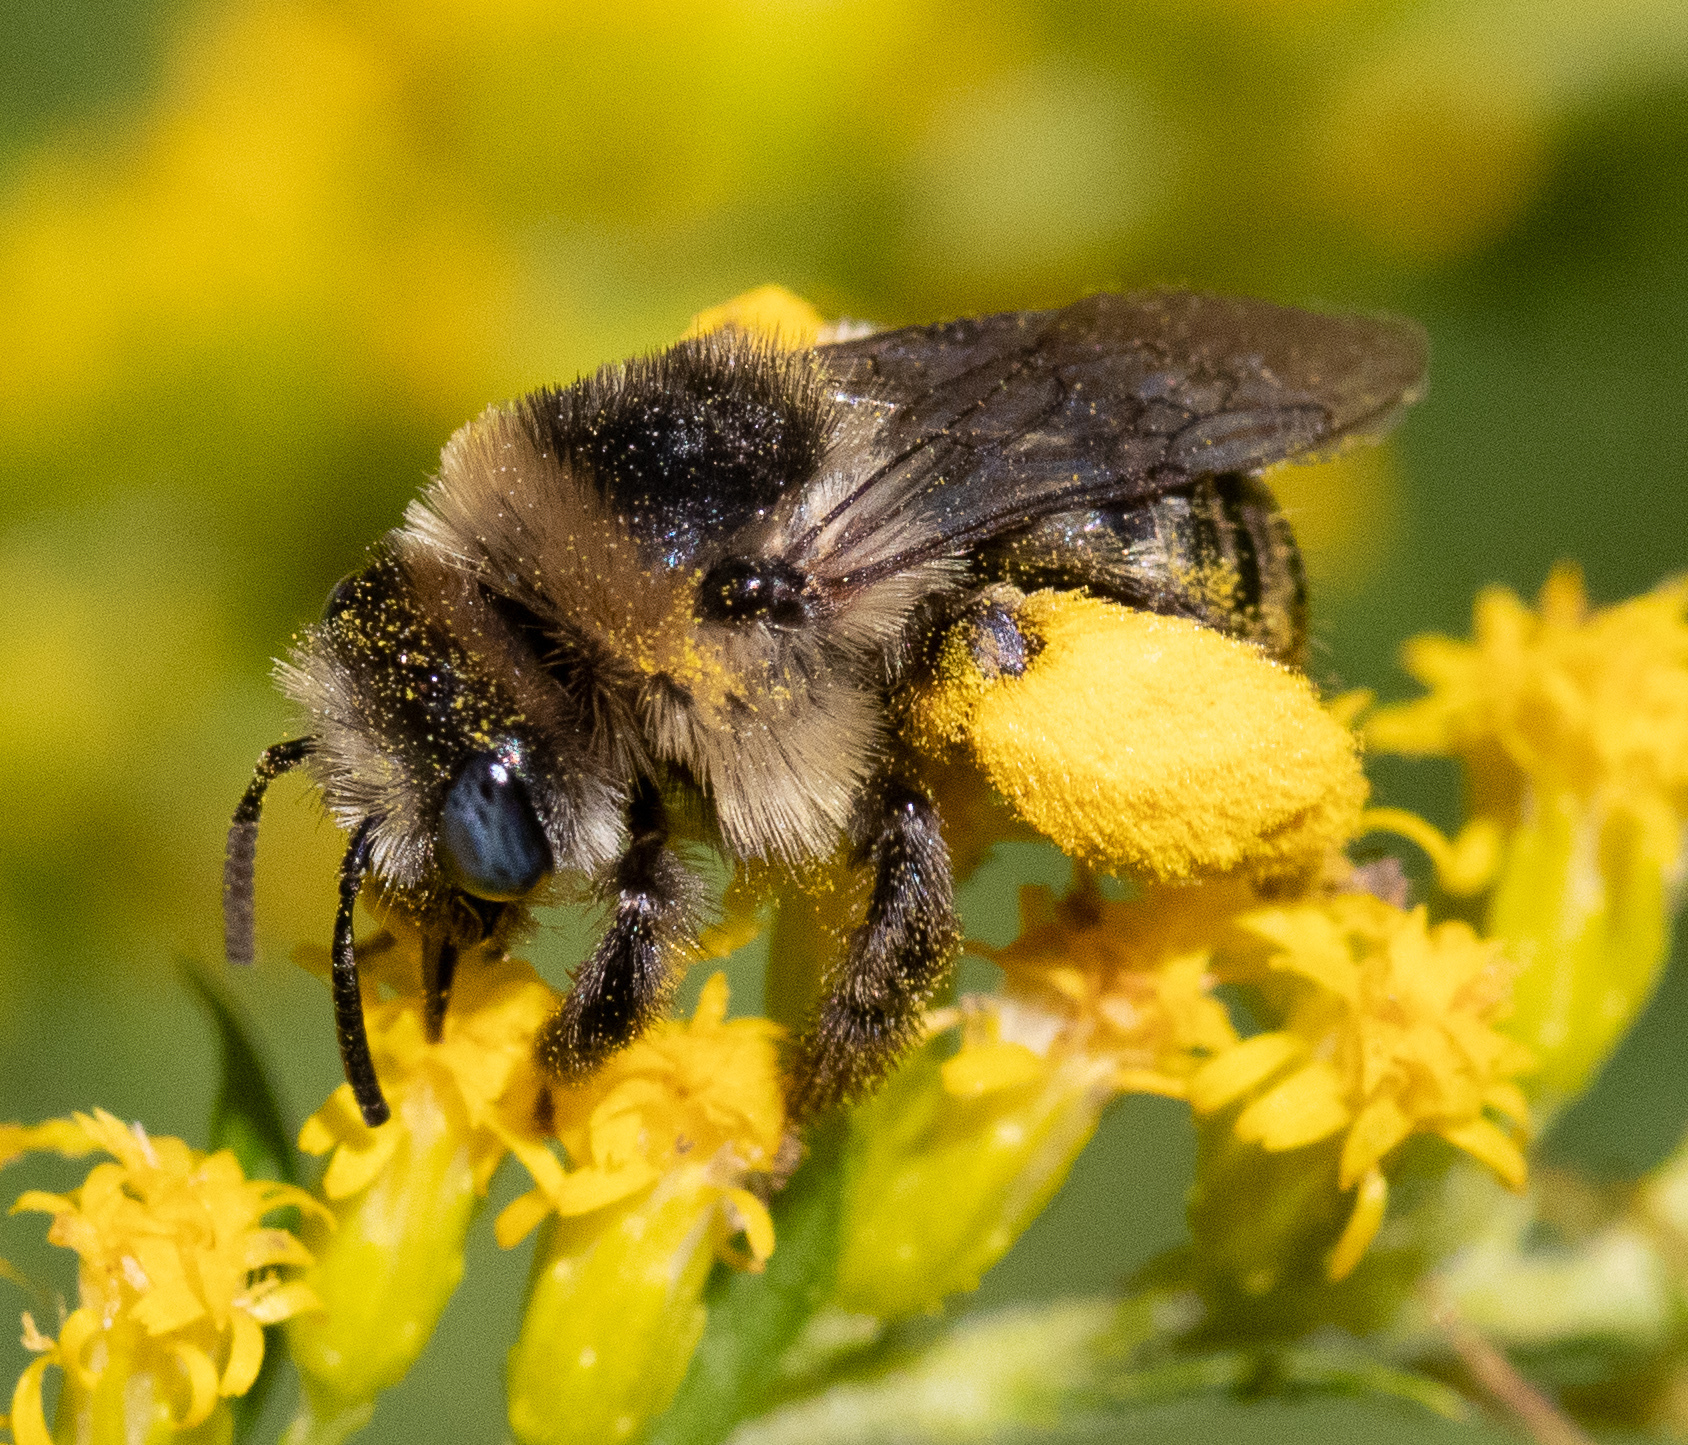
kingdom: Animalia
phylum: Arthropoda
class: Insecta
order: Hymenoptera
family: Apidae
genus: Melissodes
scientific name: Melissodes druriellus
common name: Drury's long-horned bee
